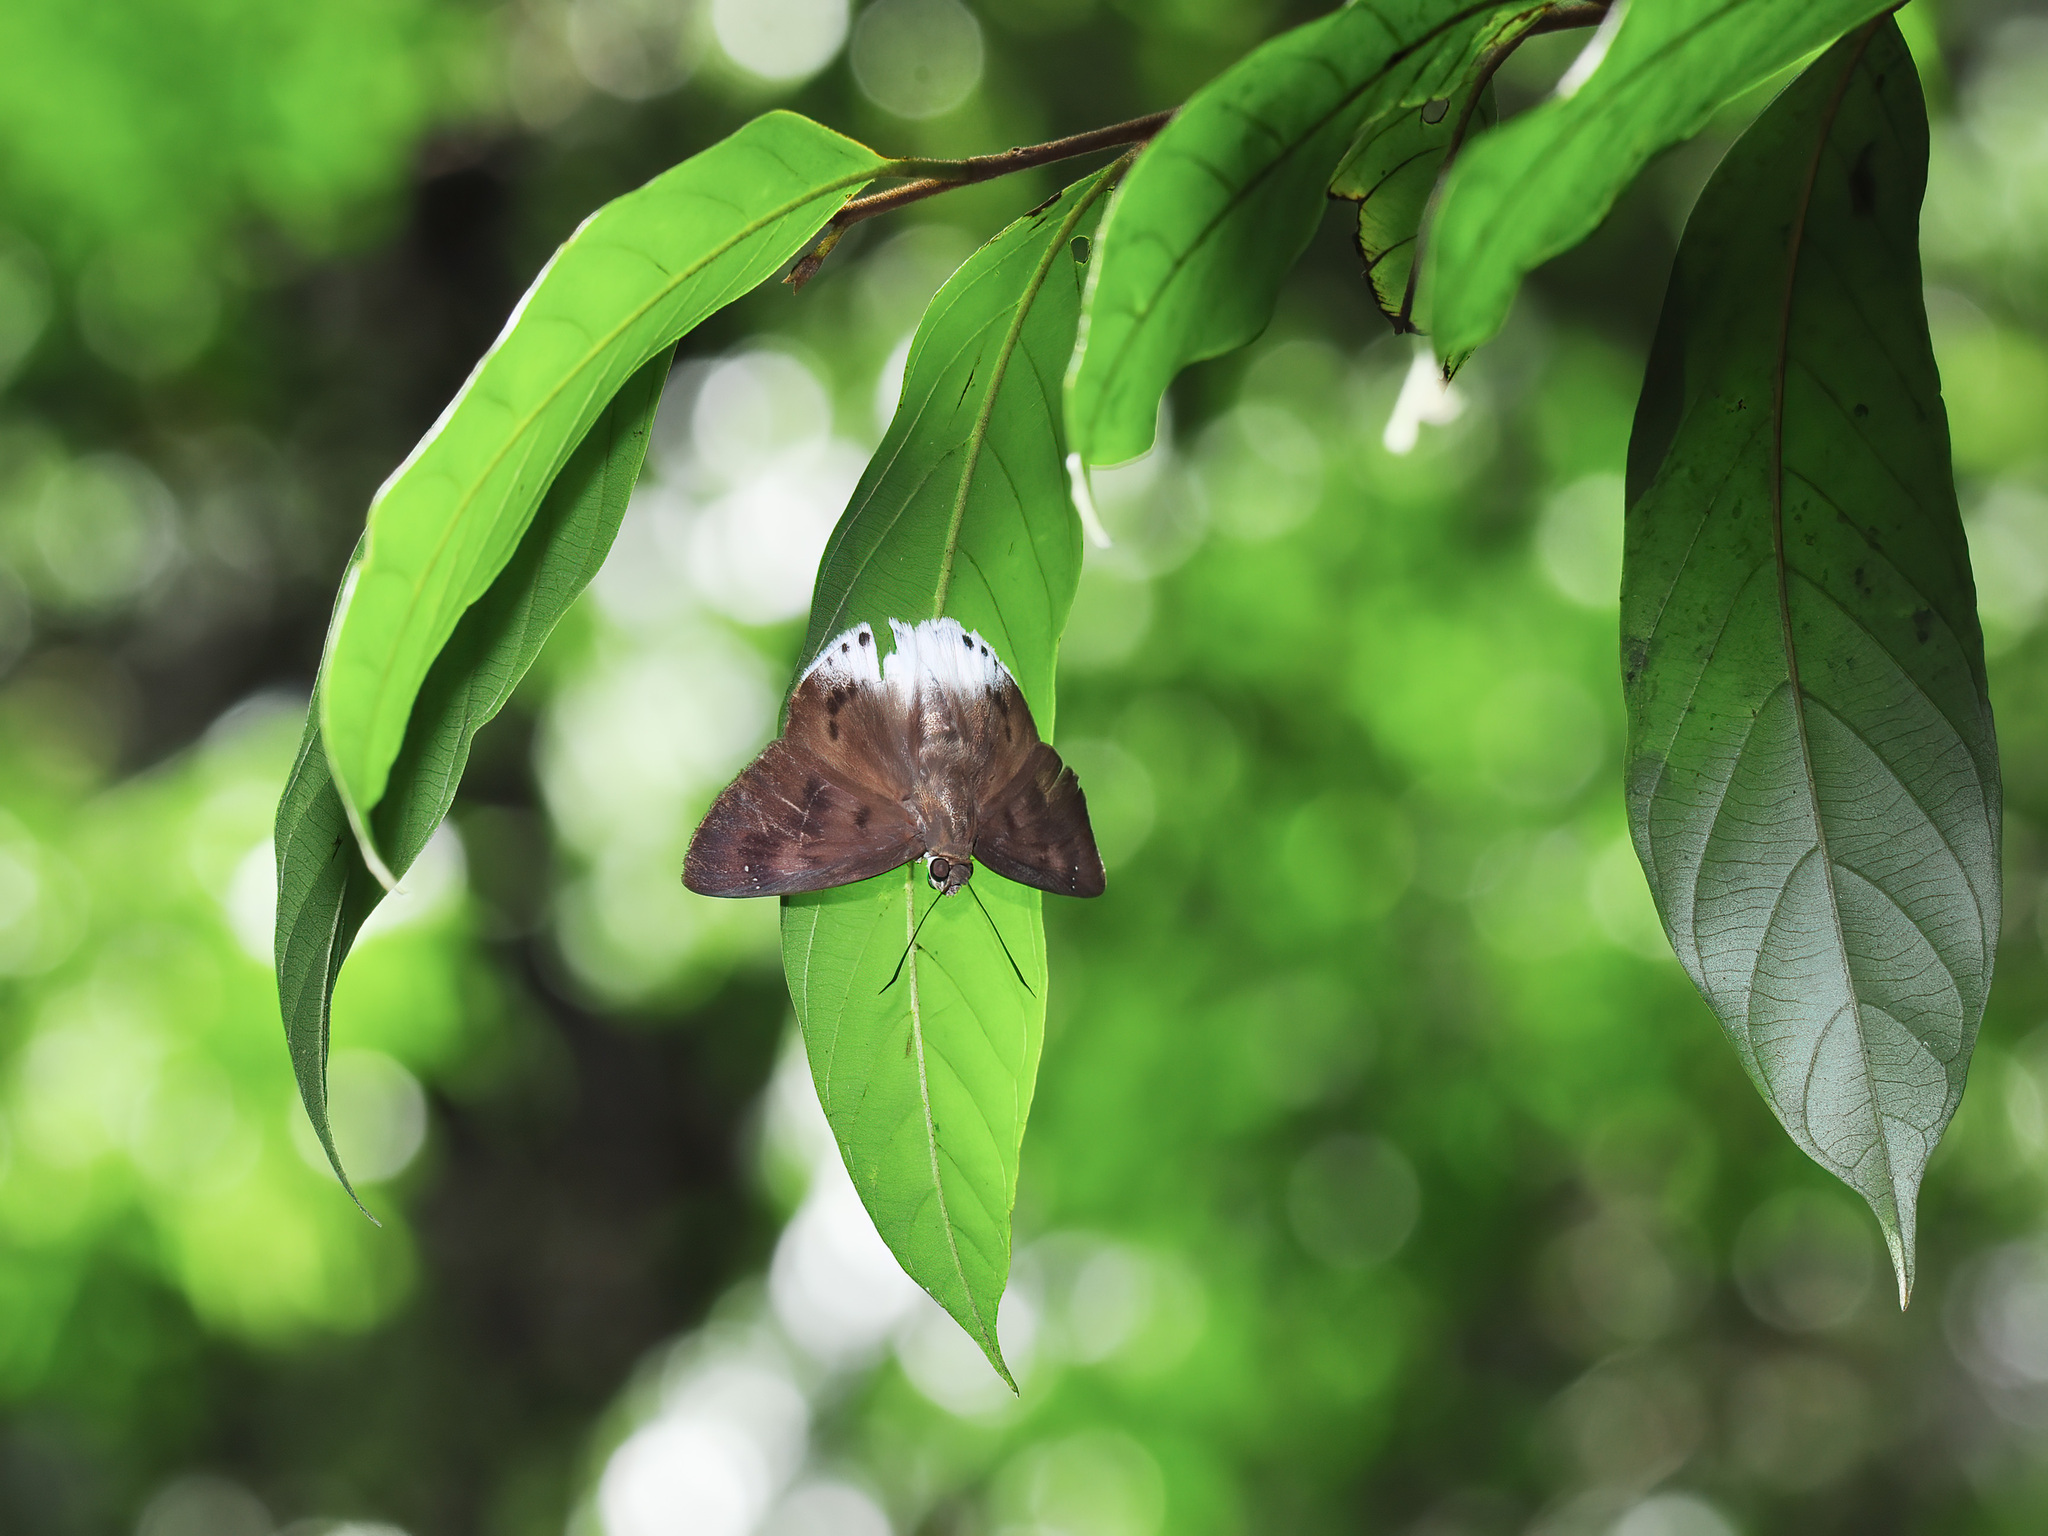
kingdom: Animalia
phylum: Arthropoda
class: Insecta
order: Lepidoptera
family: Hesperiidae
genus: Tagiades
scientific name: Tagiades gana
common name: Suffused snow flat
